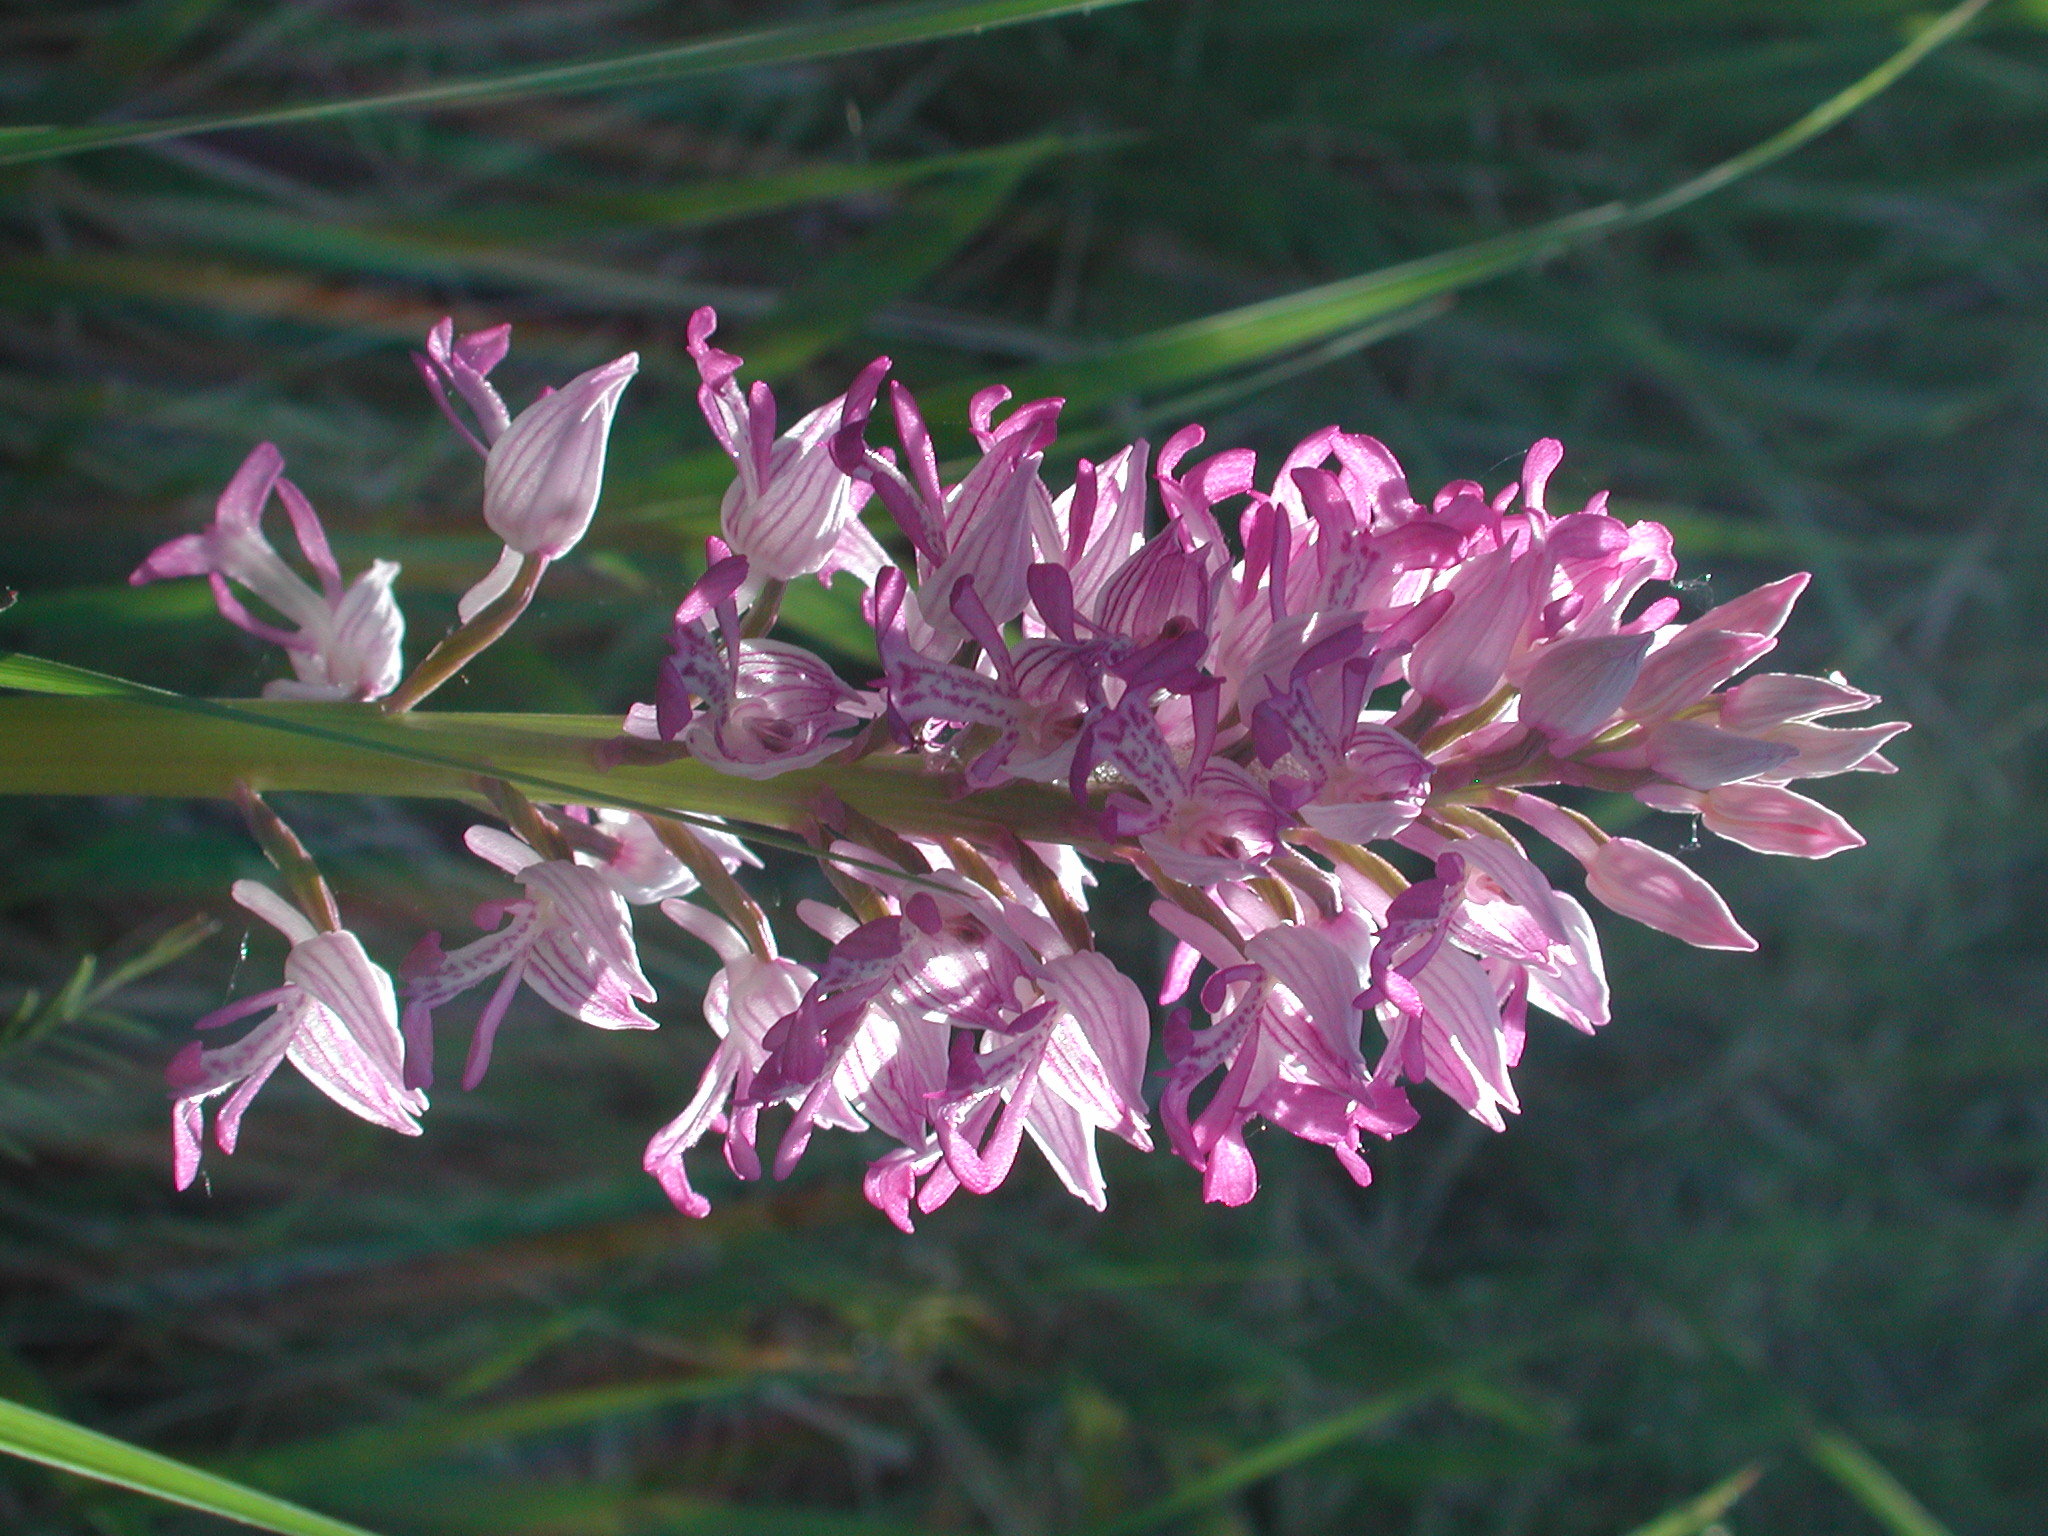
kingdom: Plantae
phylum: Tracheophyta
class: Liliopsida
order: Asparagales
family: Orchidaceae
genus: Orchis
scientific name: Orchis militaris
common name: Military orchid
